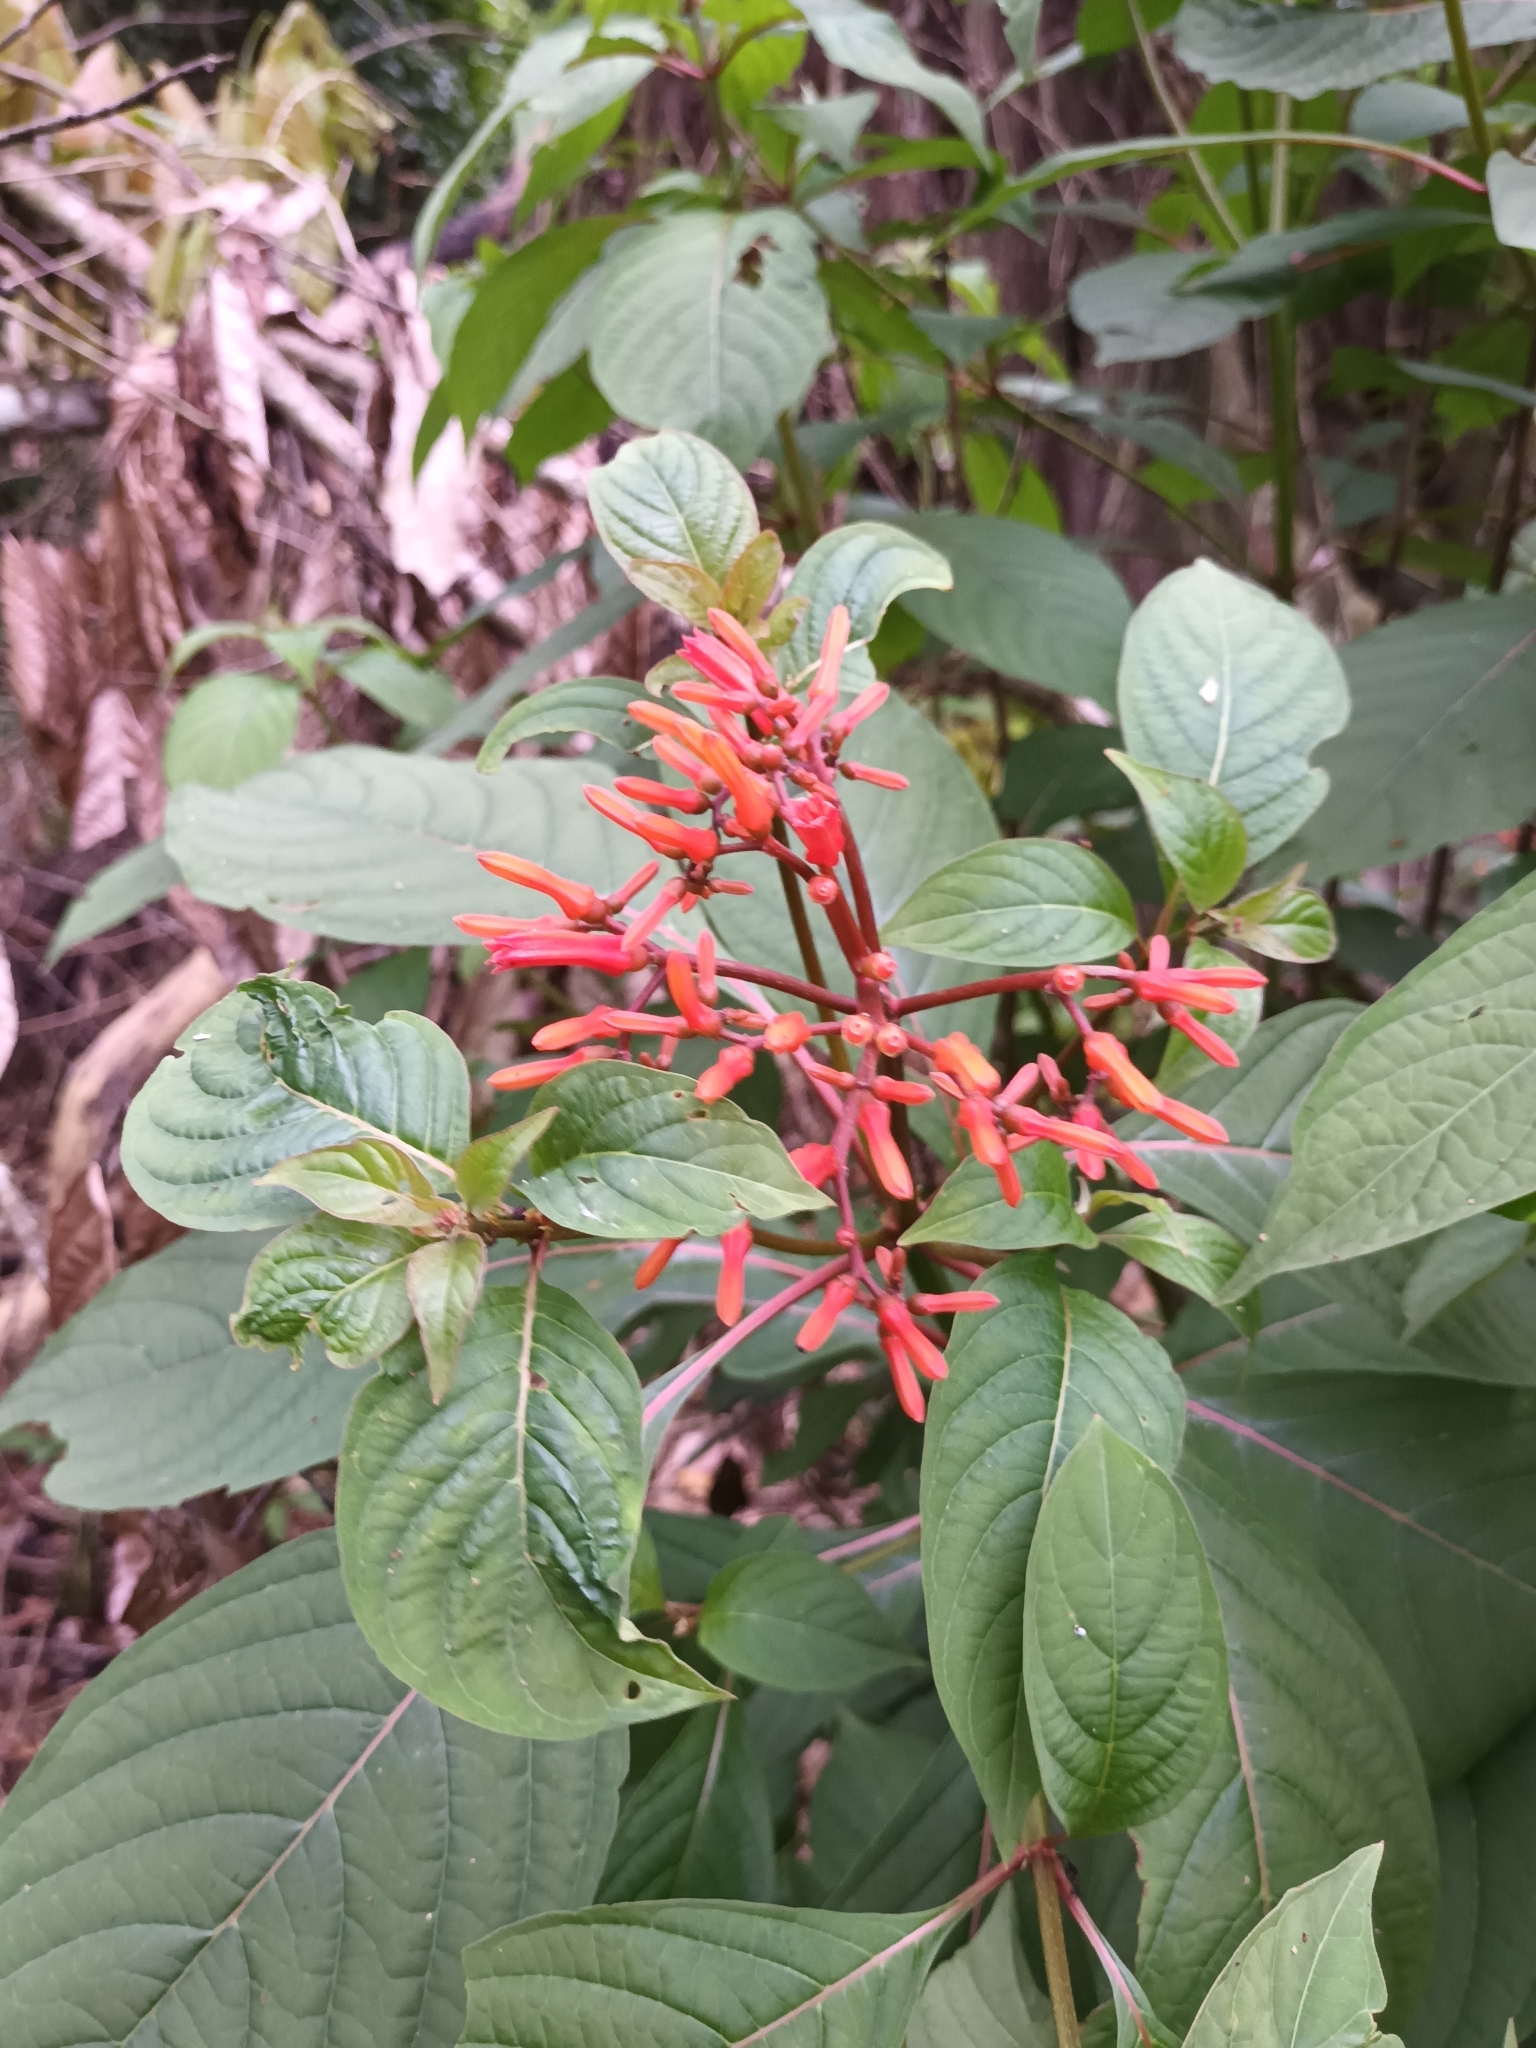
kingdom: Plantae
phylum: Tracheophyta
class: Magnoliopsida
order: Gentianales
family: Rubiaceae
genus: Hamelia
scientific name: Hamelia patens
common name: Redhead
